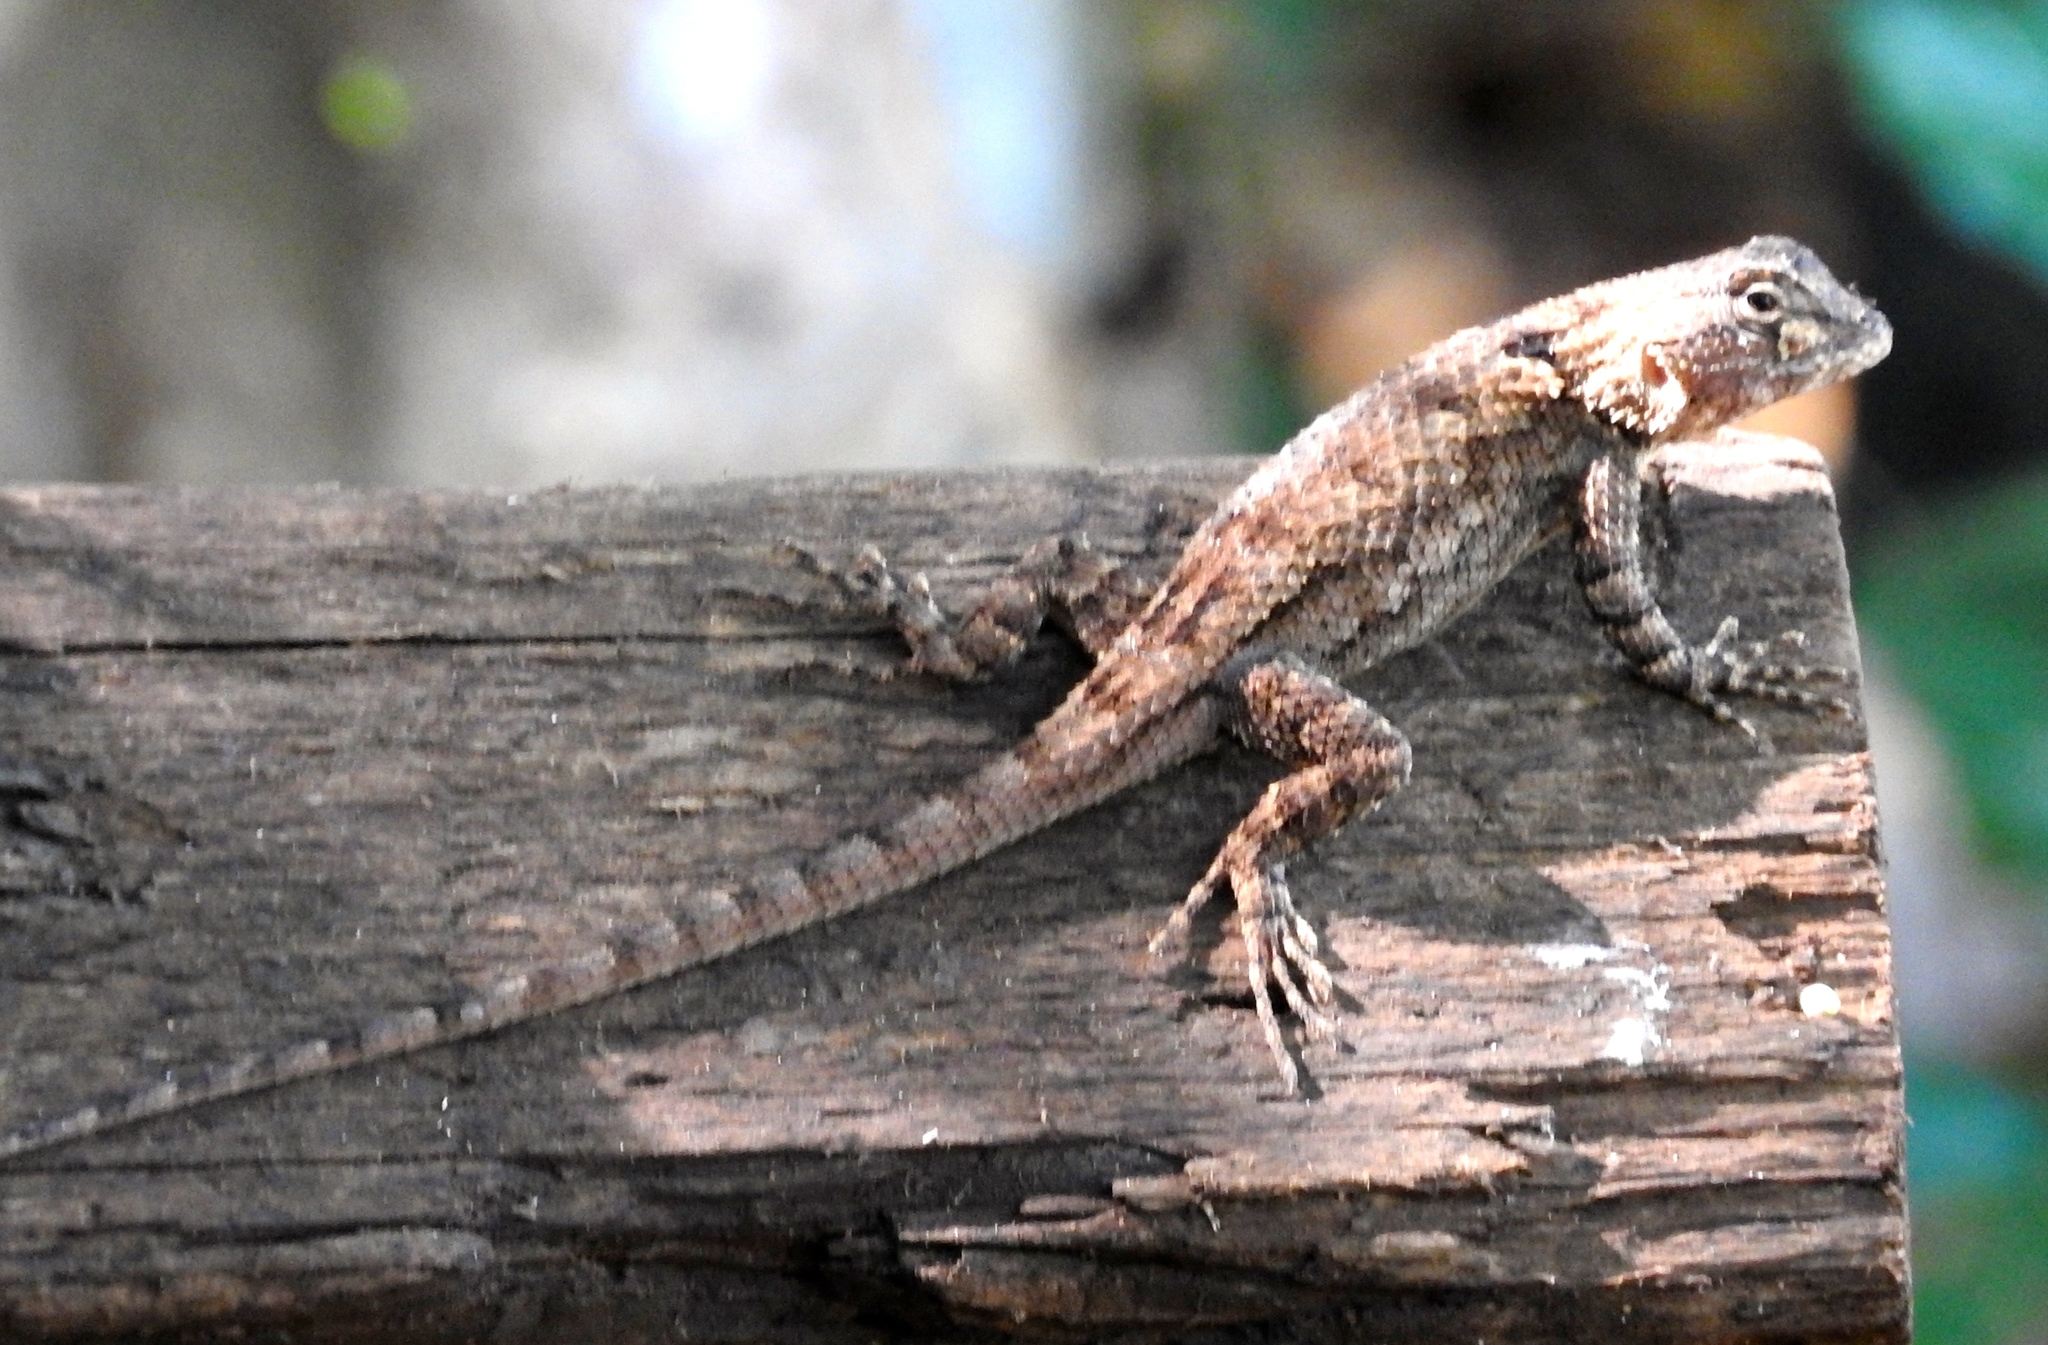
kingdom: Animalia
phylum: Chordata
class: Squamata
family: Phrynosomatidae
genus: Sceloporus
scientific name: Sceloporus clarkii
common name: Clark's spiny lizard
